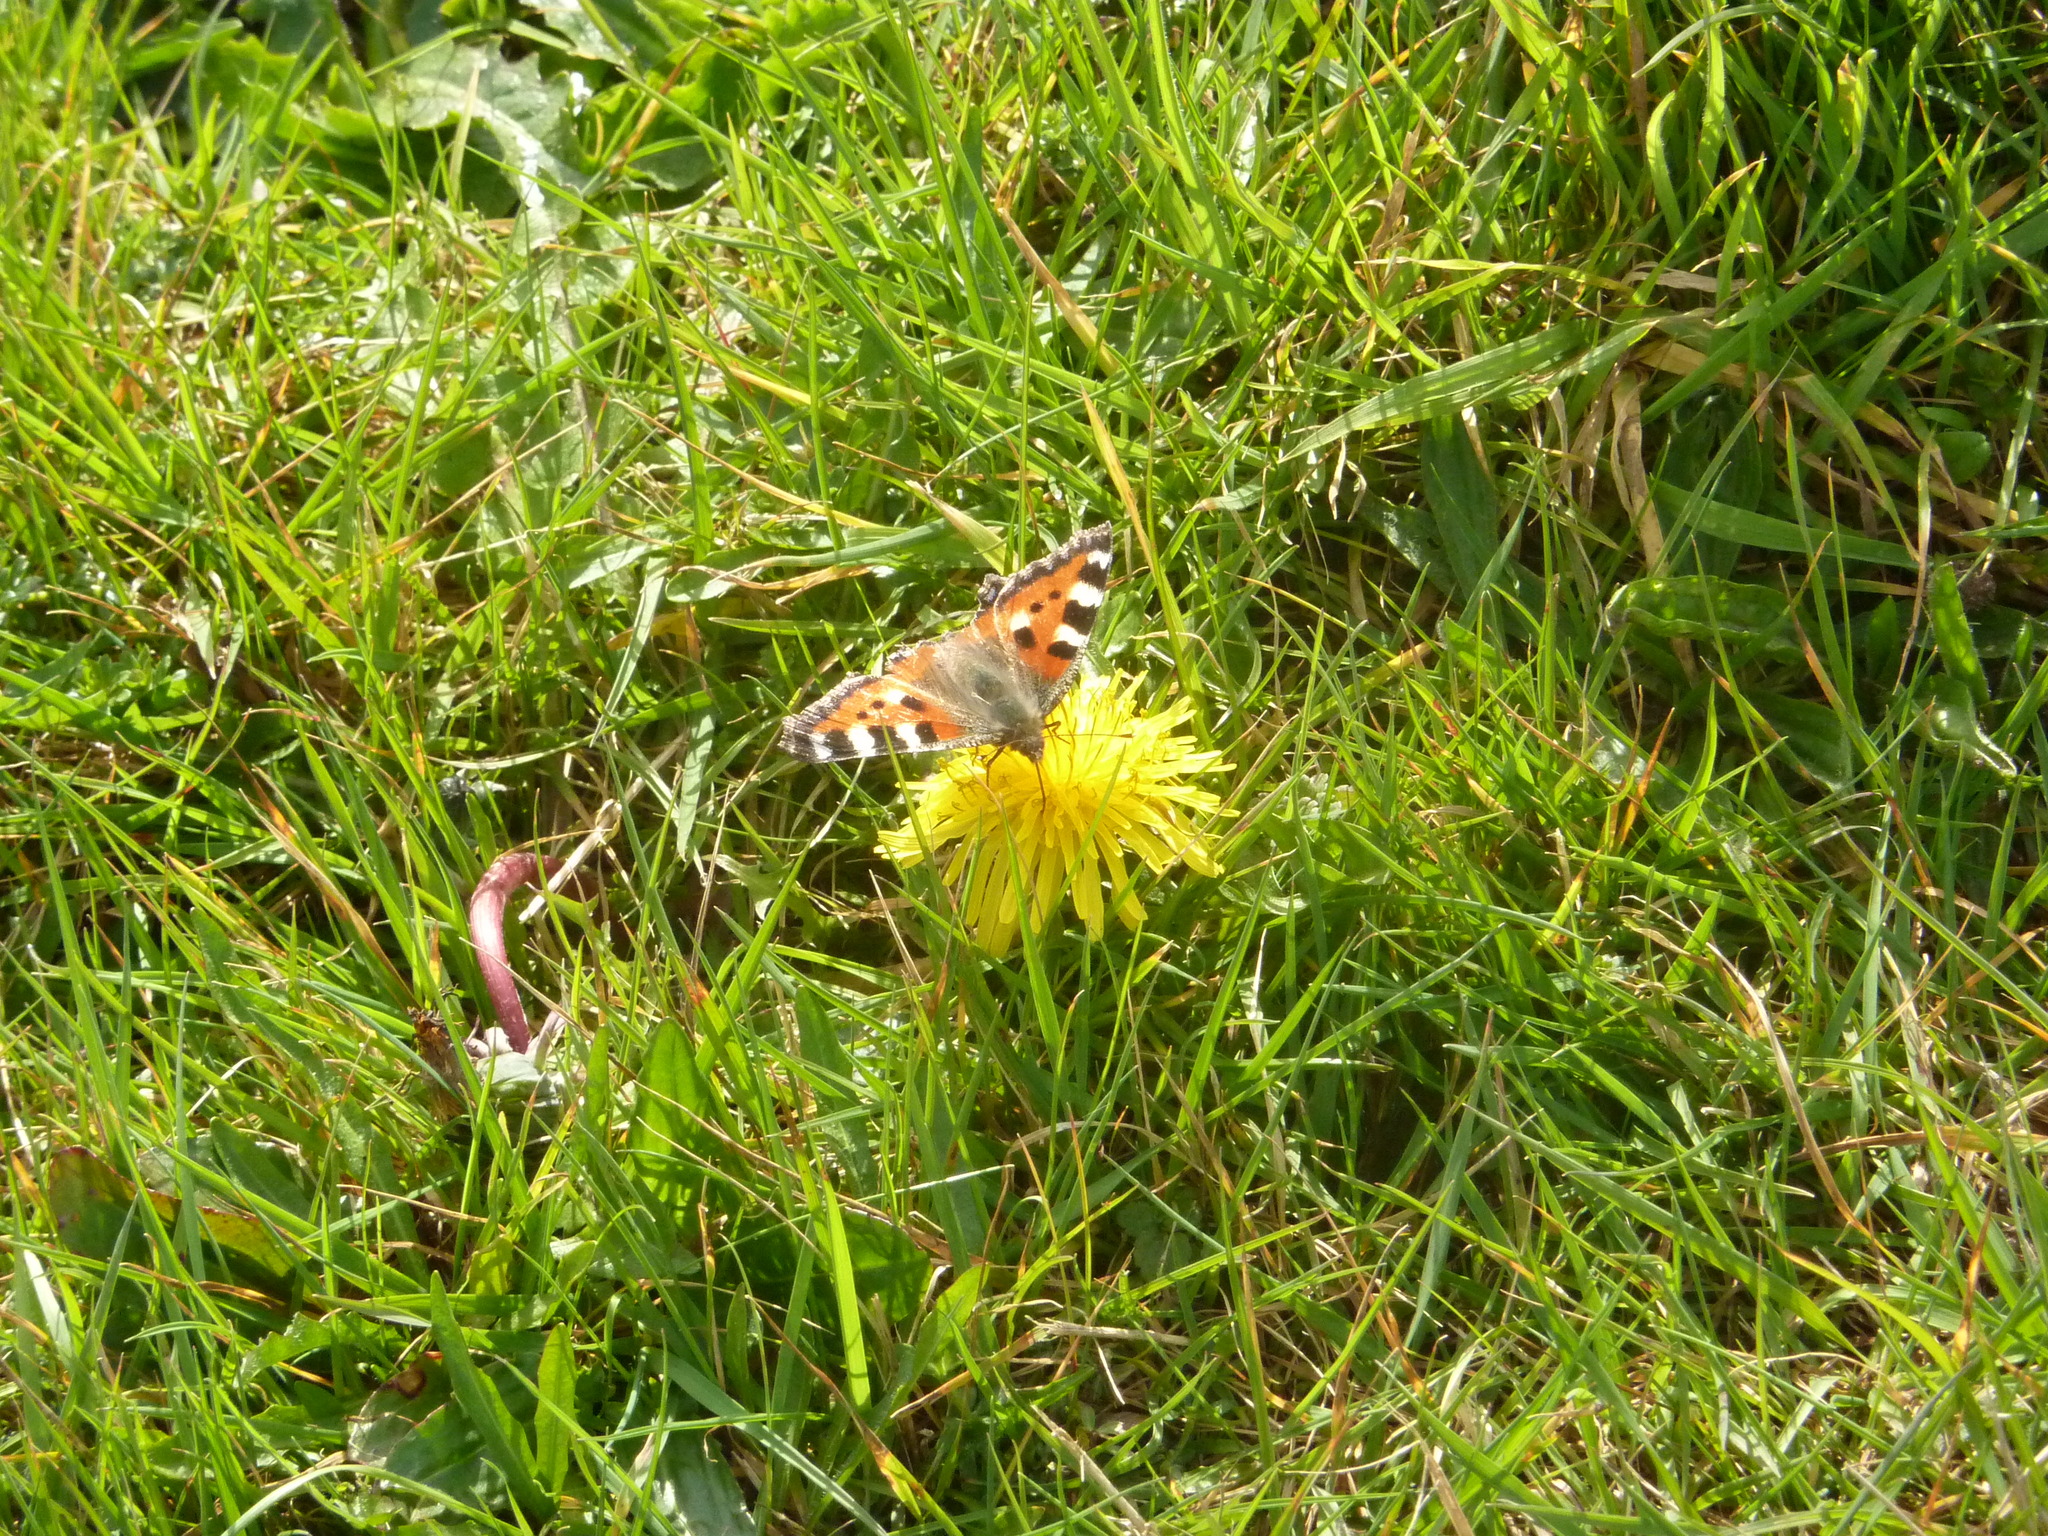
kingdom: Animalia
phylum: Arthropoda
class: Insecta
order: Lepidoptera
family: Nymphalidae
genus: Aglais
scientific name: Aglais urticae
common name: Small tortoiseshell
